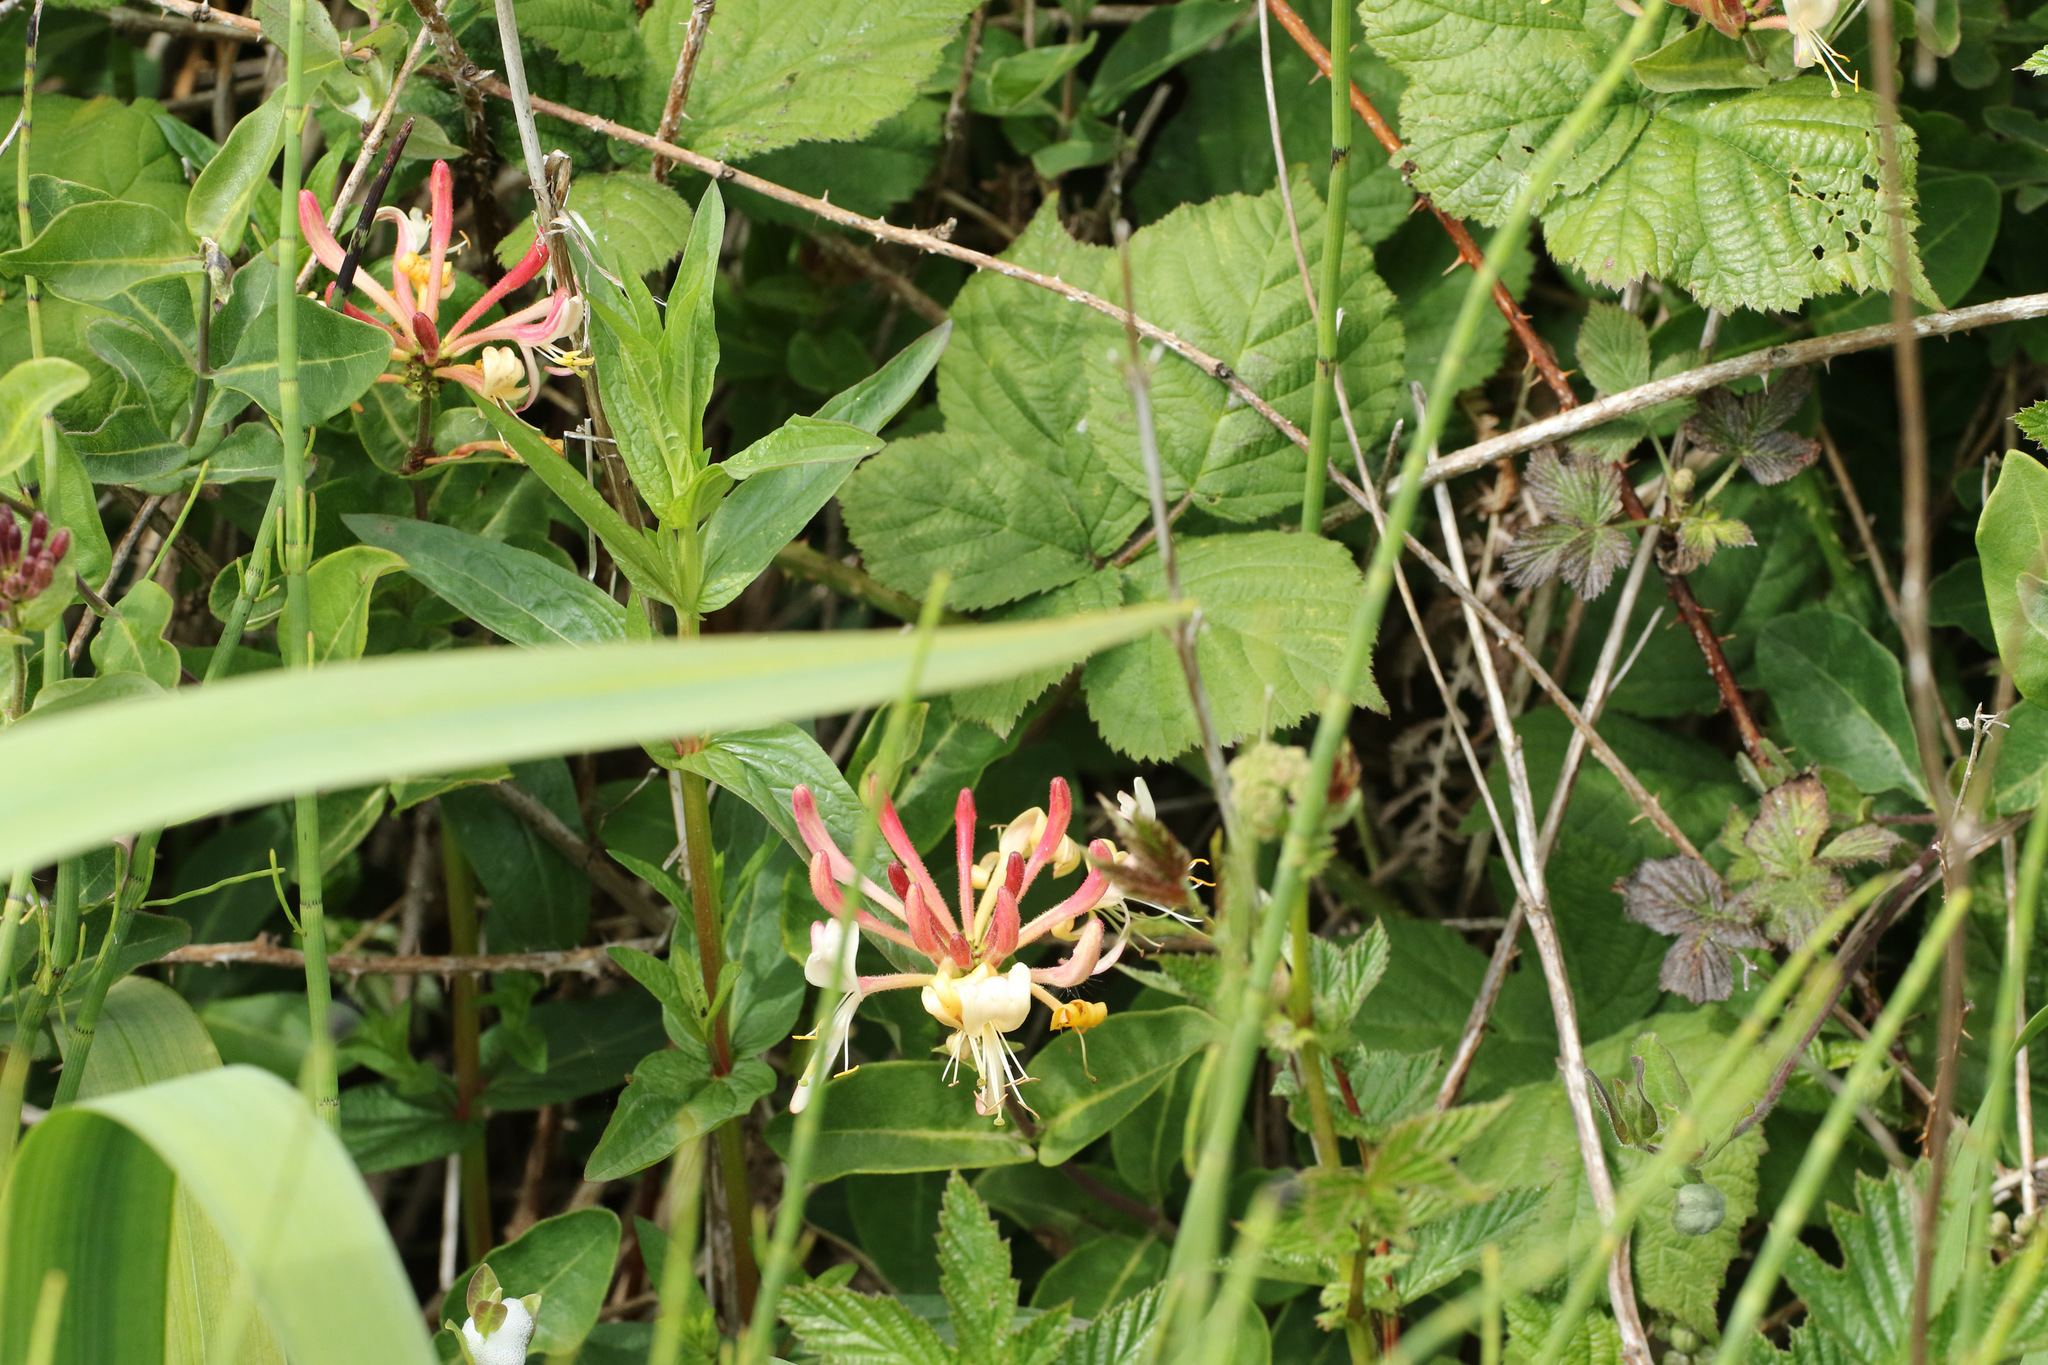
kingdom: Plantae
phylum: Tracheophyta
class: Magnoliopsida
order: Dipsacales
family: Caprifoliaceae
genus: Lonicera
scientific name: Lonicera periclymenum
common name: European honeysuckle
